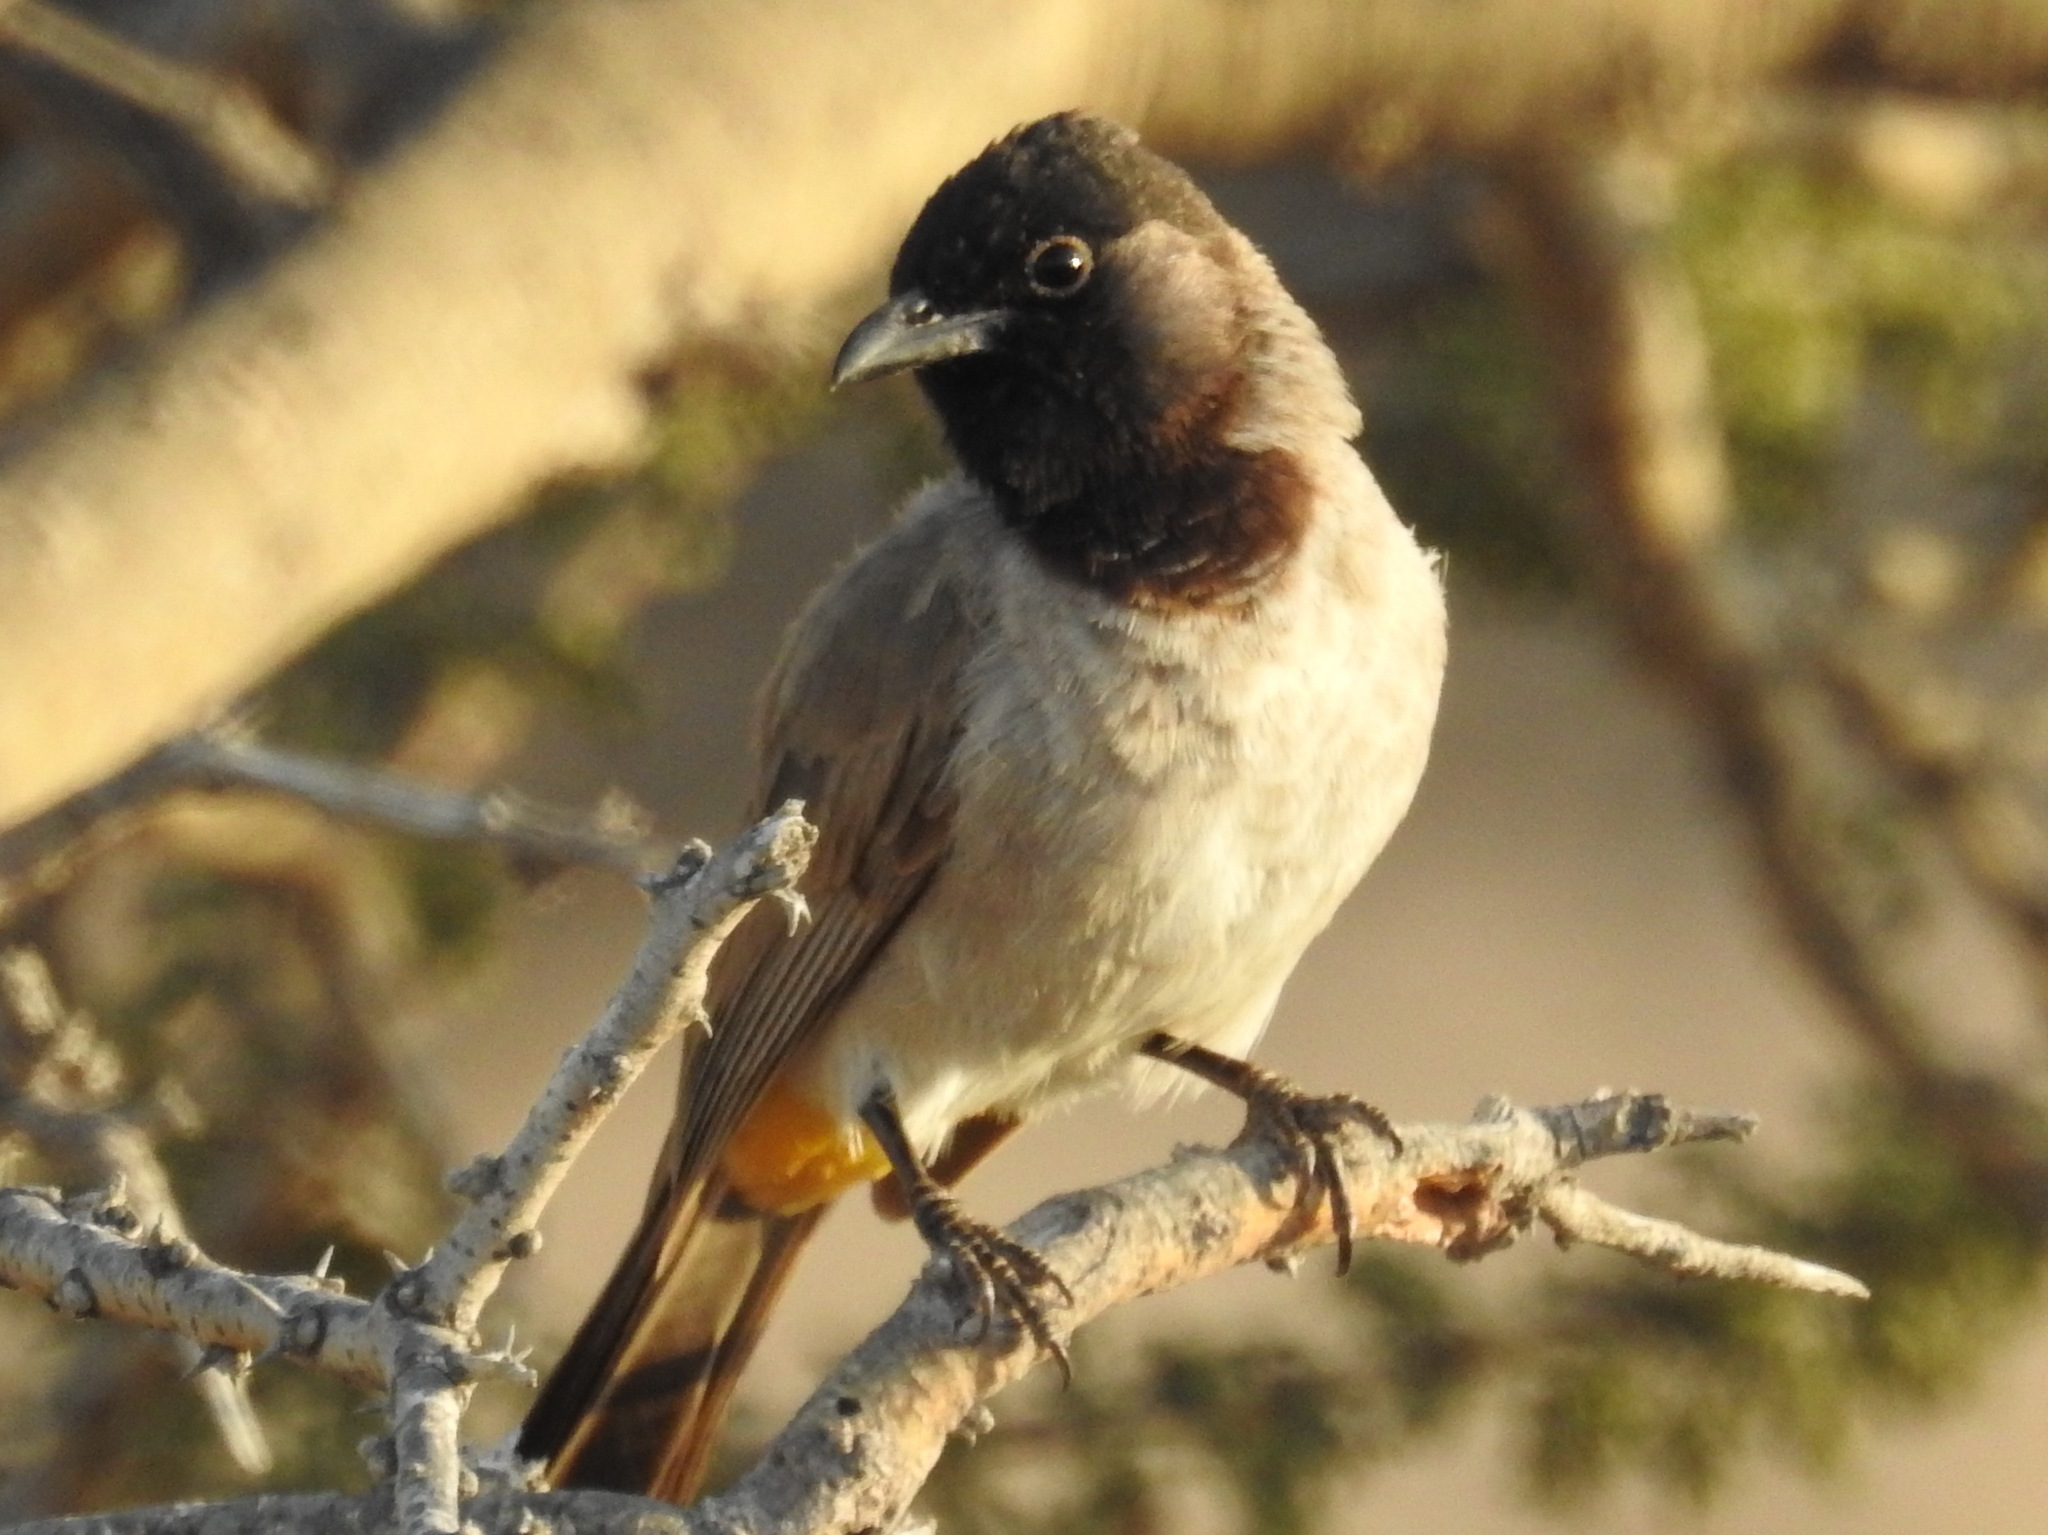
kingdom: Animalia
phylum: Chordata
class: Aves
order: Passeriformes
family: Pycnonotidae
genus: Pycnonotus
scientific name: Pycnonotus leucotis
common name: White-eared bulbul
